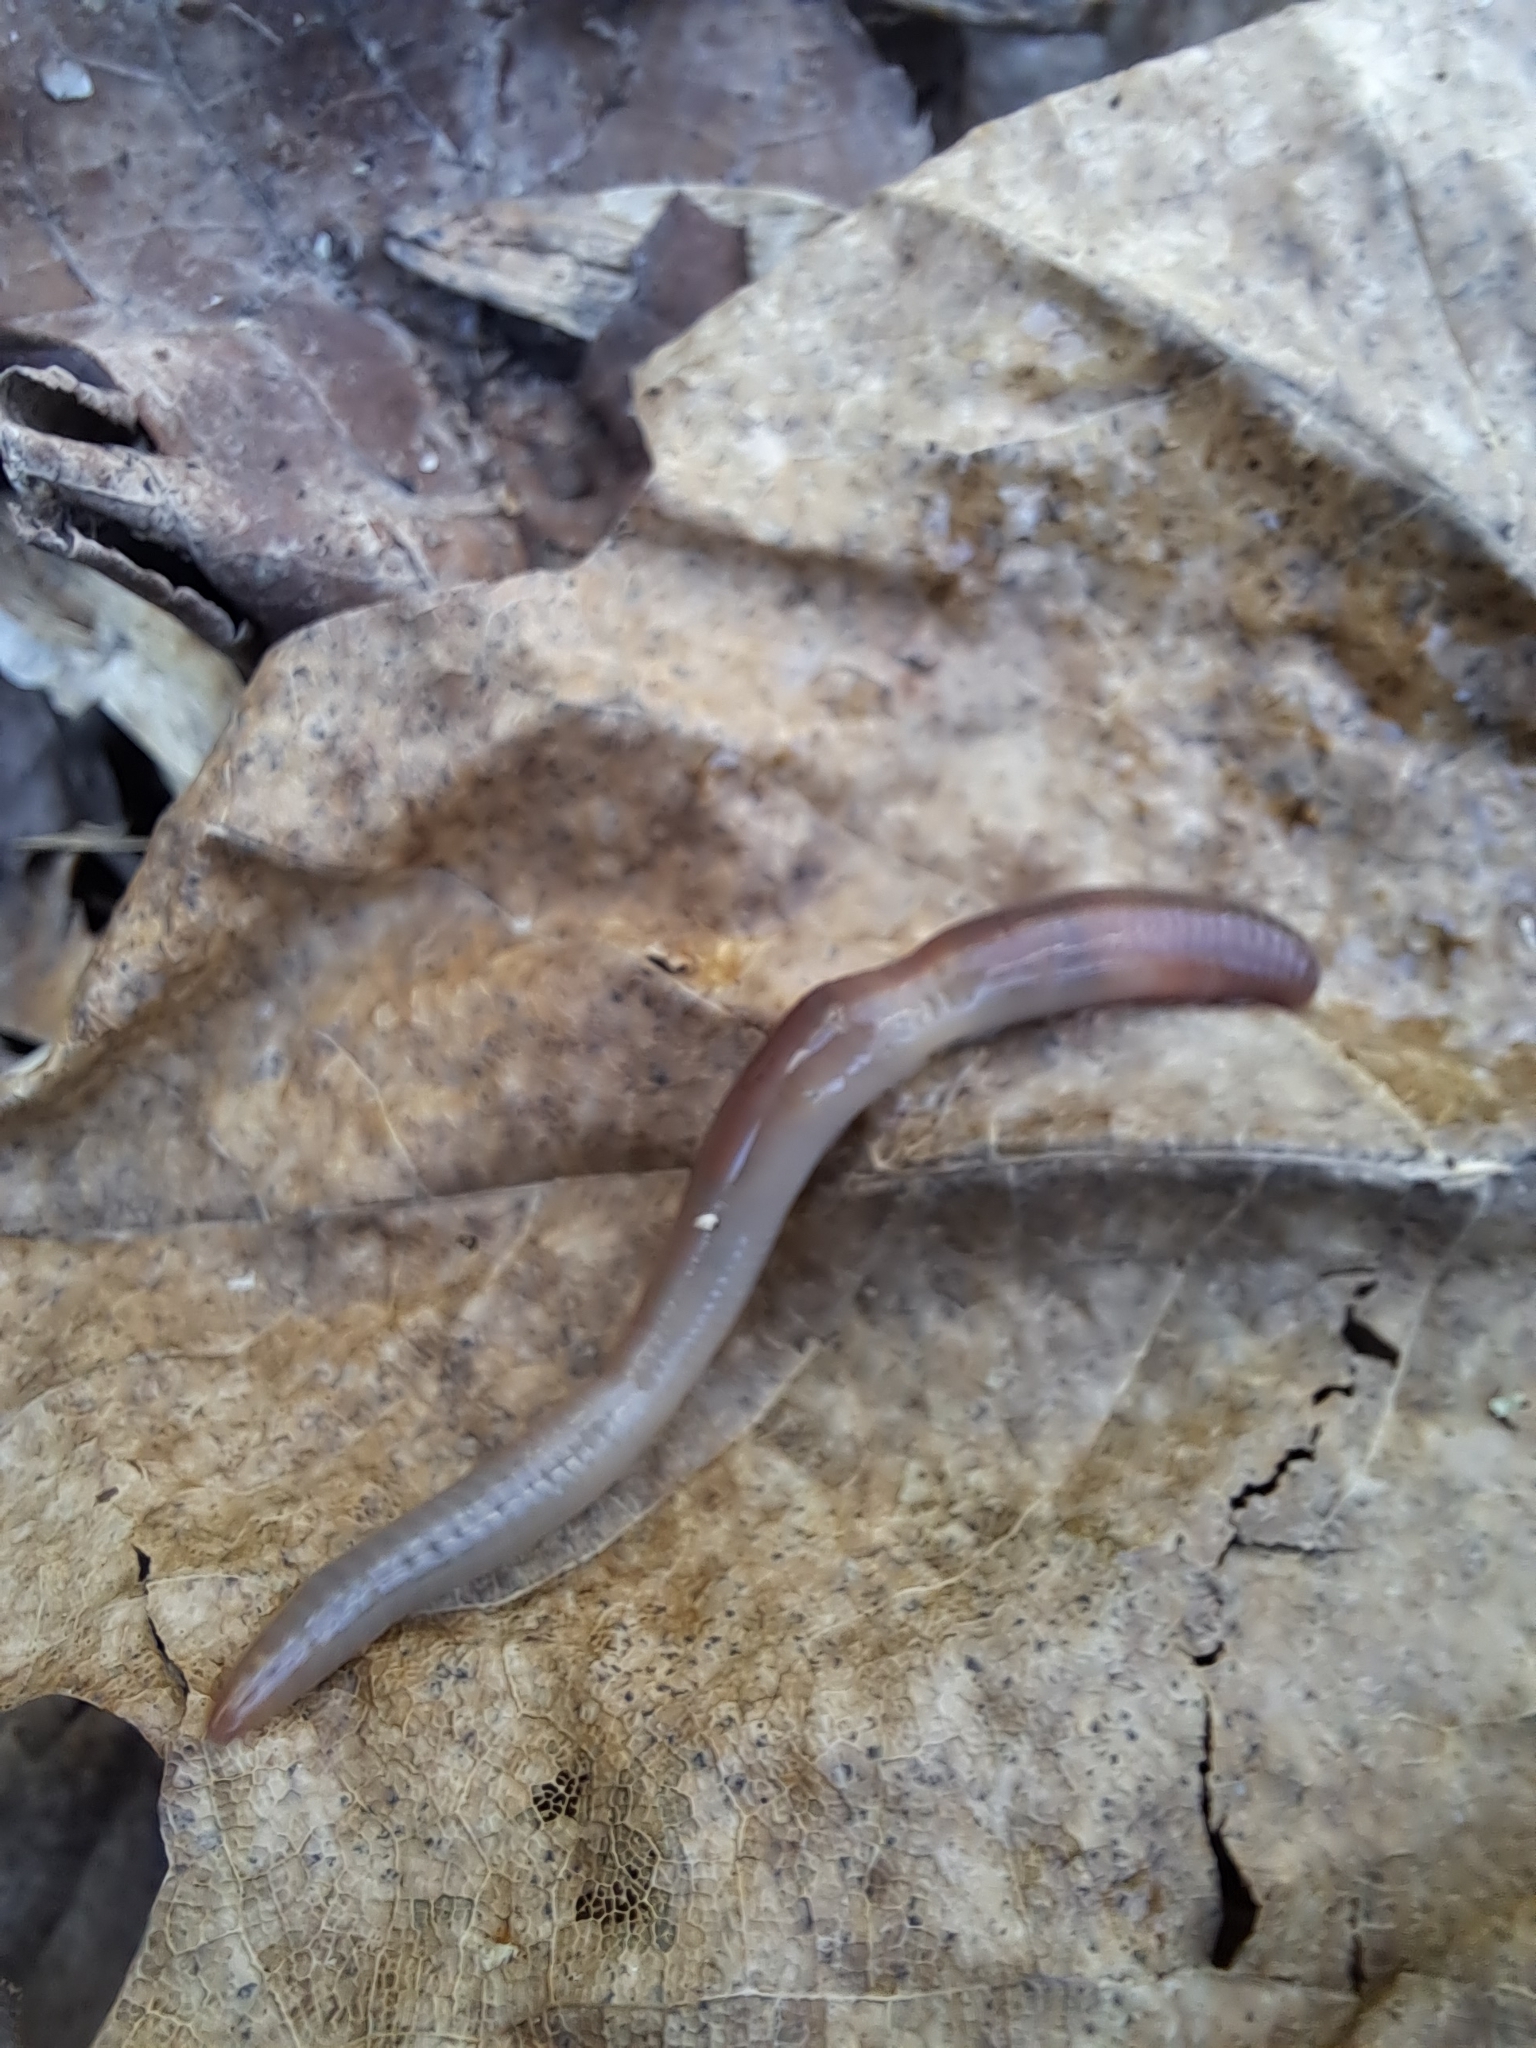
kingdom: Animalia
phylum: Annelida
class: Clitellata
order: Crassiclitellata
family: Lumbricidae
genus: Lumbricus
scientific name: Lumbricus terrestris
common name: Common earthworm
